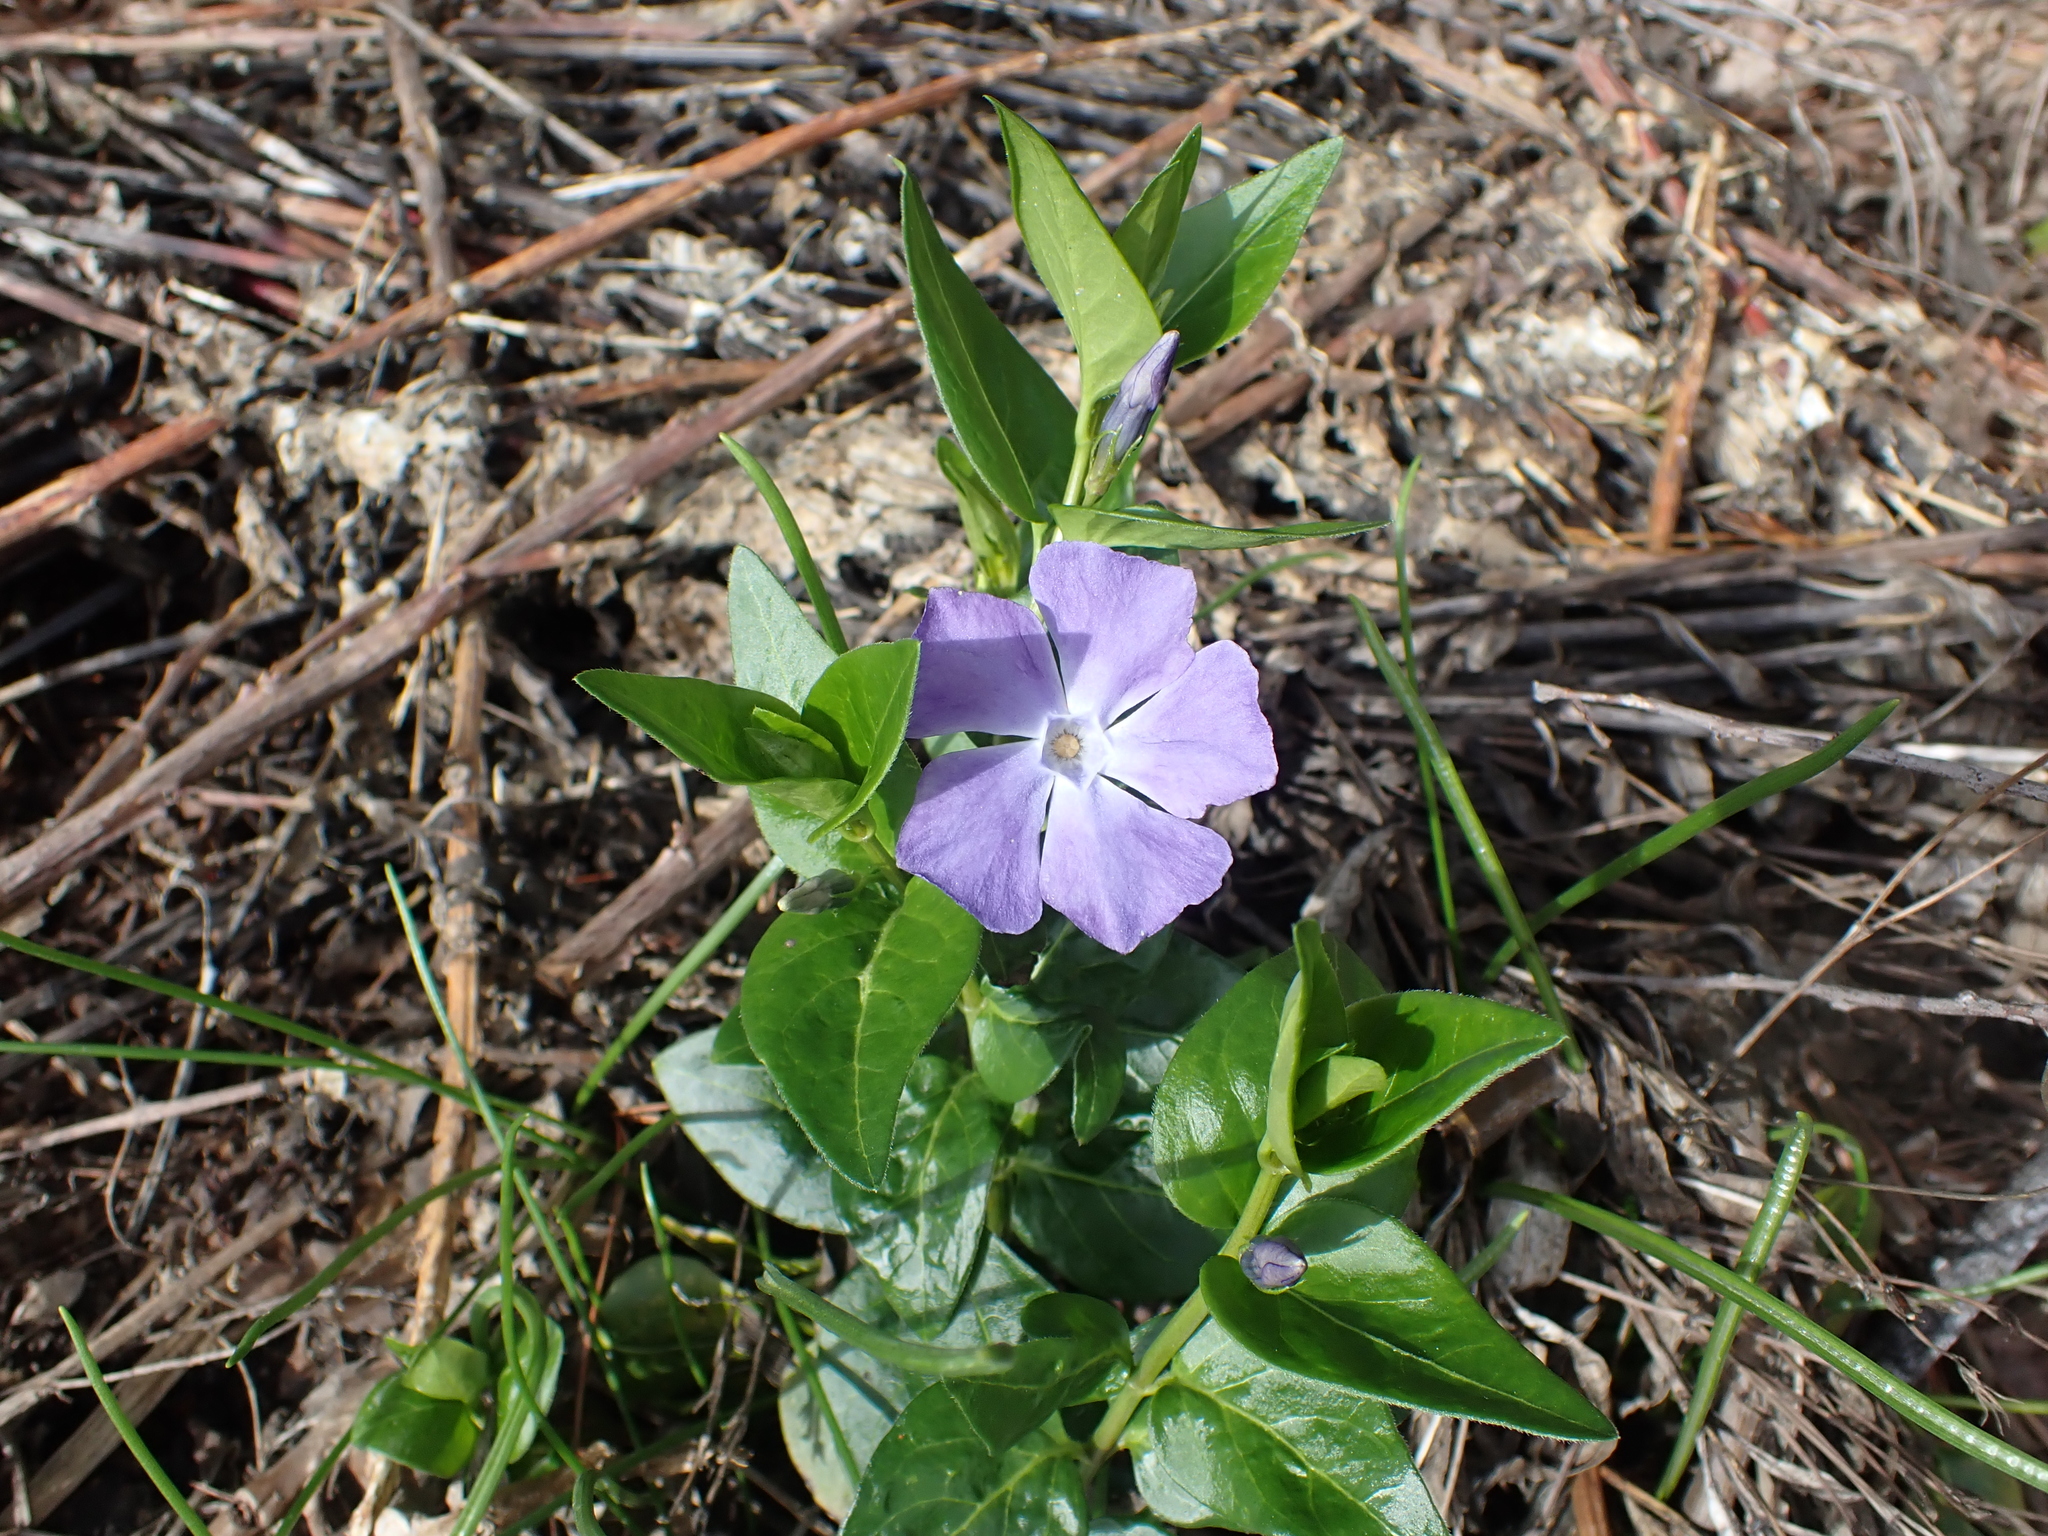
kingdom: Plantae
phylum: Tracheophyta
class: Magnoliopsida
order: Gentianales
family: Apocynaceae
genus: Vinca
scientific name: Vinca major
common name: Greater periwinkle
